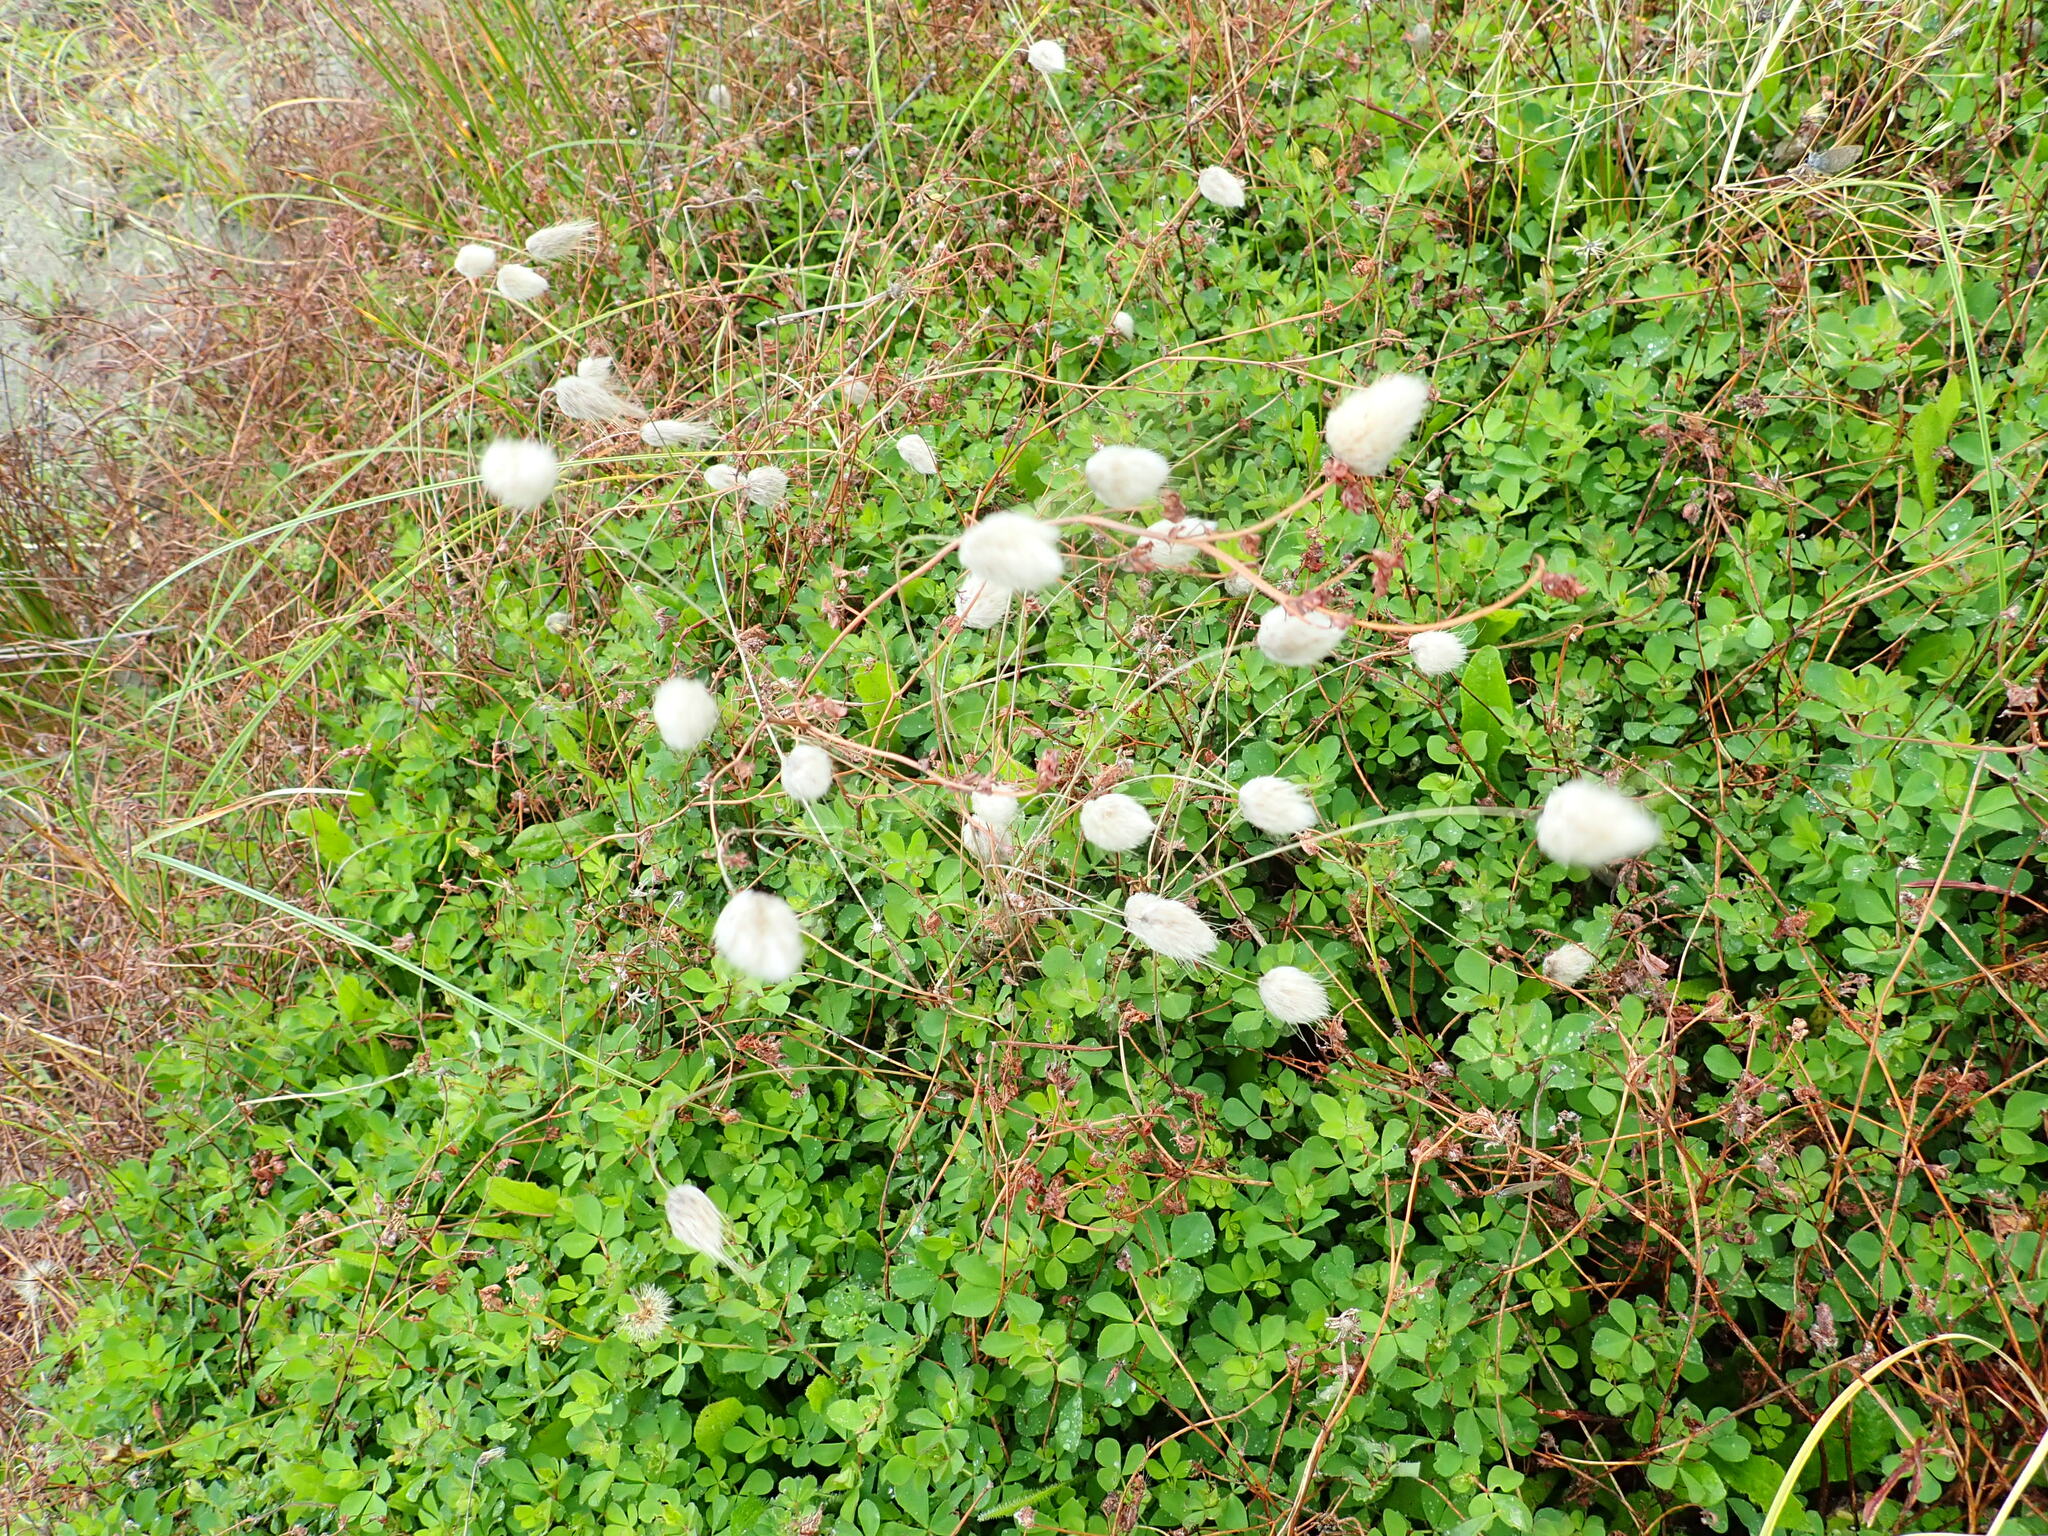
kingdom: Plantae
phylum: Tracheophyta
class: Liliopsida
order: Poales
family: Poaceae
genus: Lagurus
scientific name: Lagurus ovatus
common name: Hare's-tail
